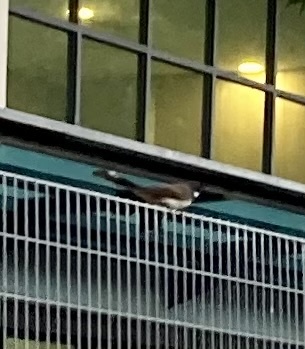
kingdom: Animalia
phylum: Chordata
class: Aves
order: Passeriformes
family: Rhipiduridae
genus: Rhipidura
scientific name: Rhipidura javanica
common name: Pied fantail
